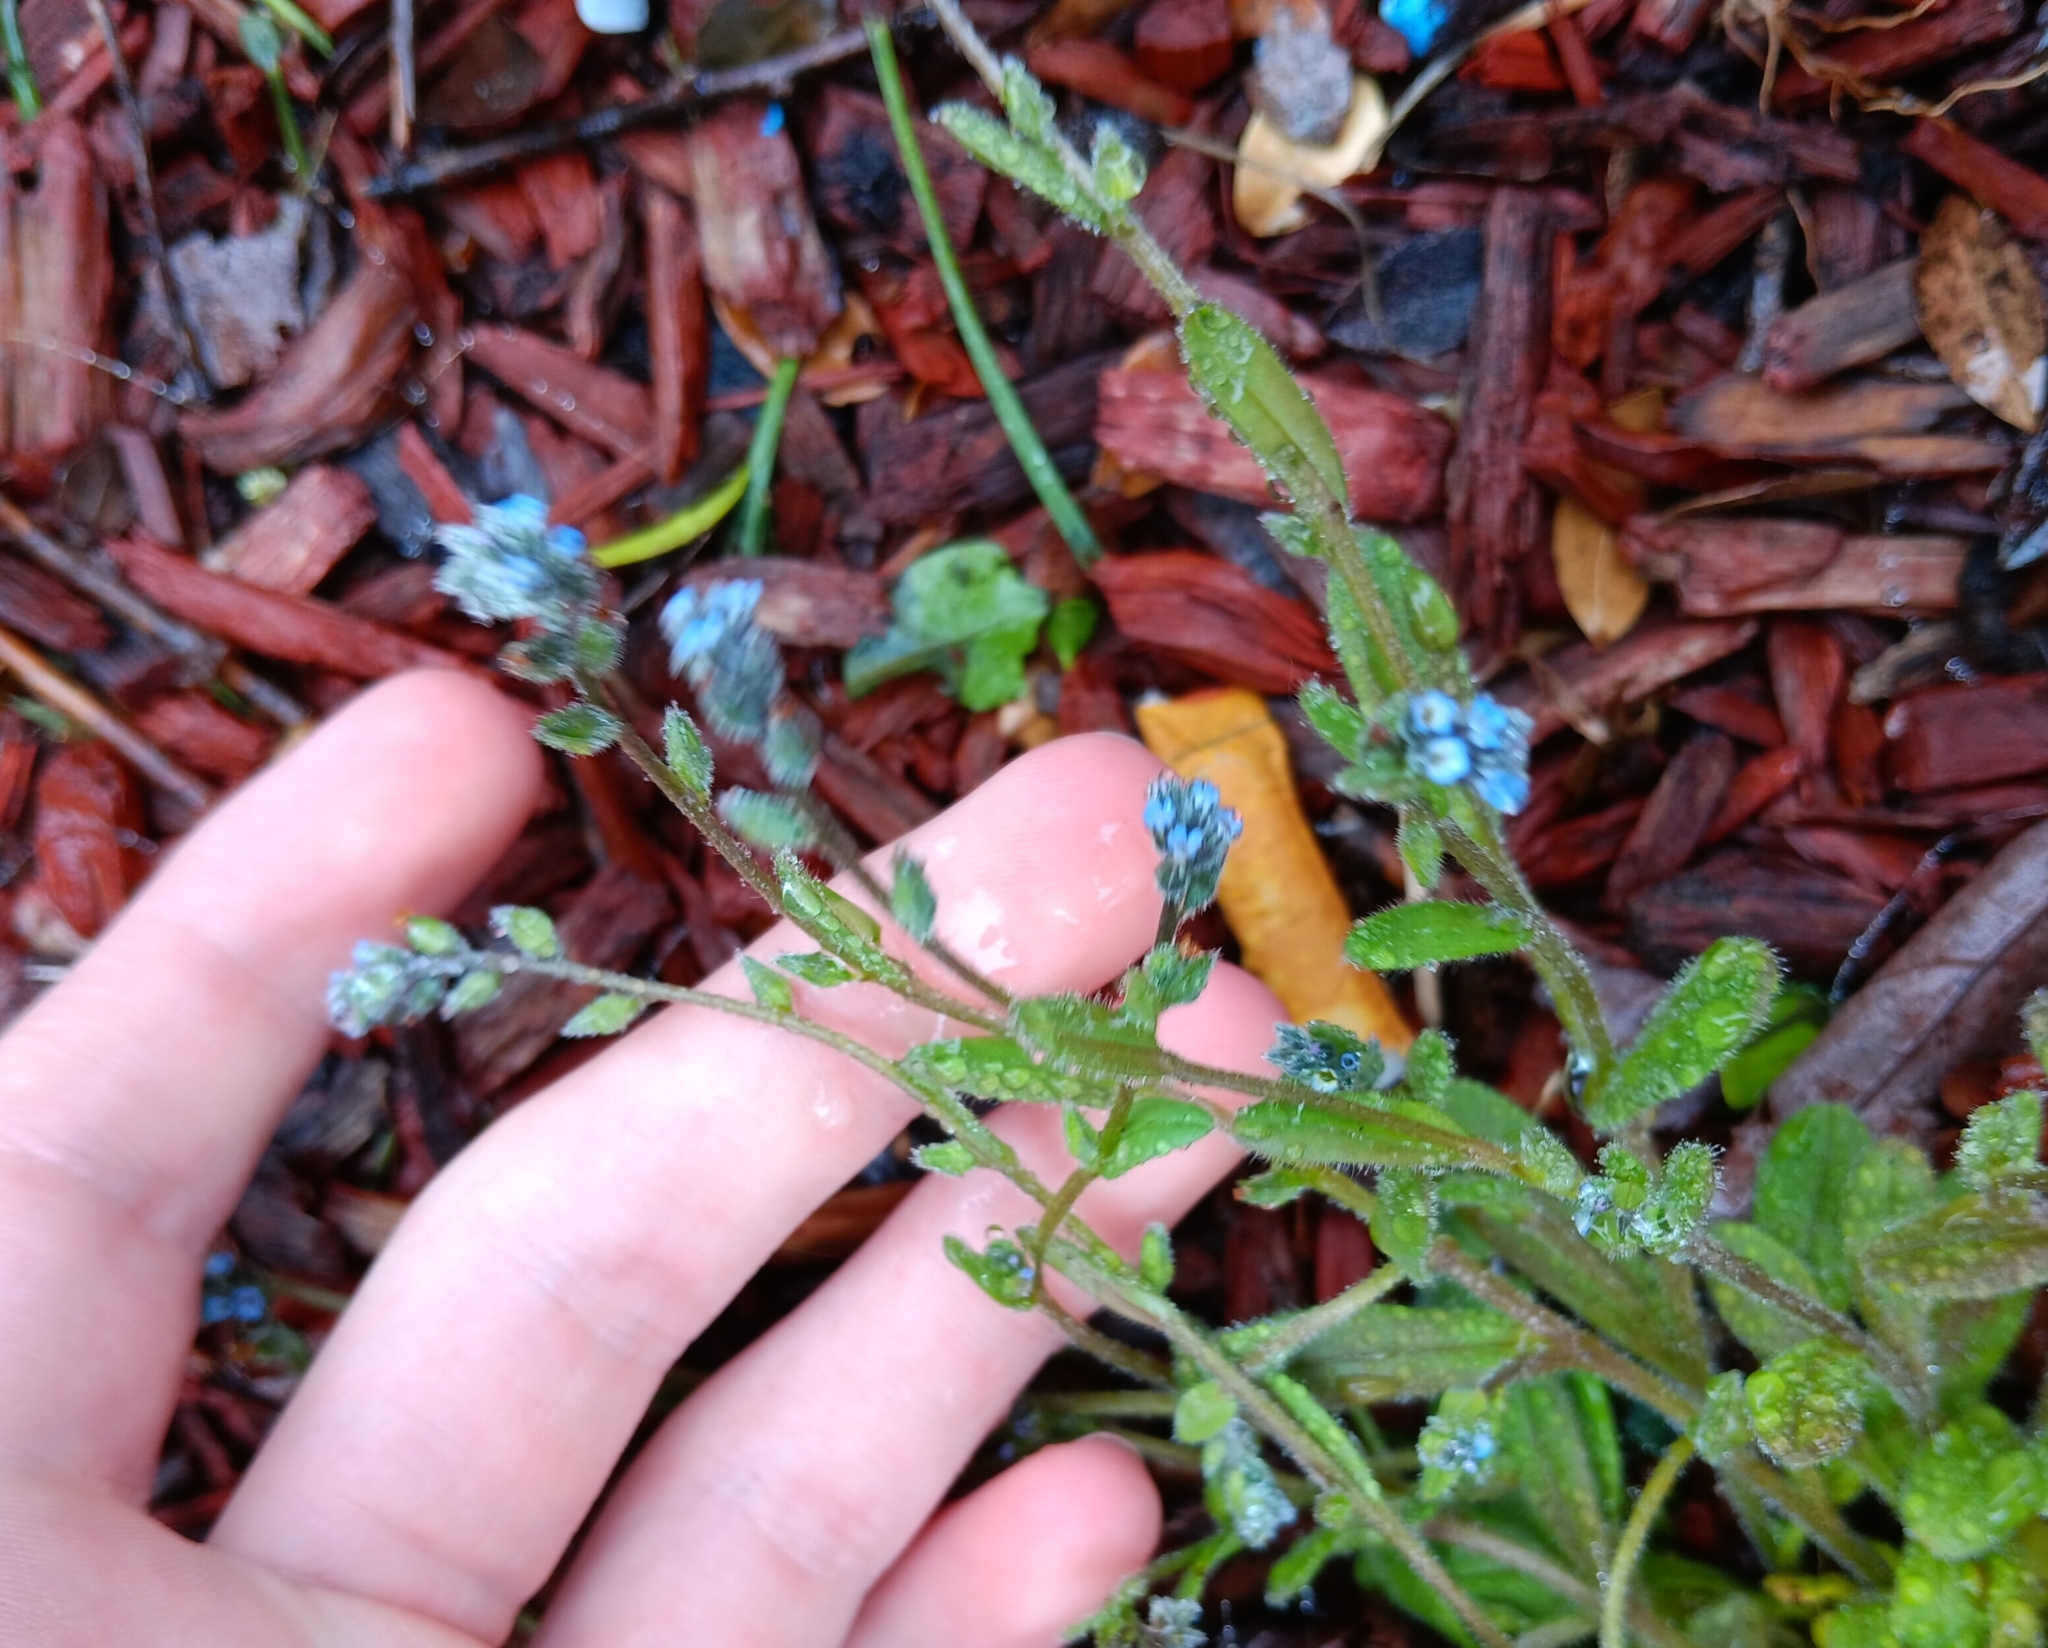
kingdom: Plantae
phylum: Tracheophyta
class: Magnoliopsida
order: Boraginales
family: Boraginaceae
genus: Myosotis
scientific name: Myosotis stricta
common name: Strict forget-me-not
